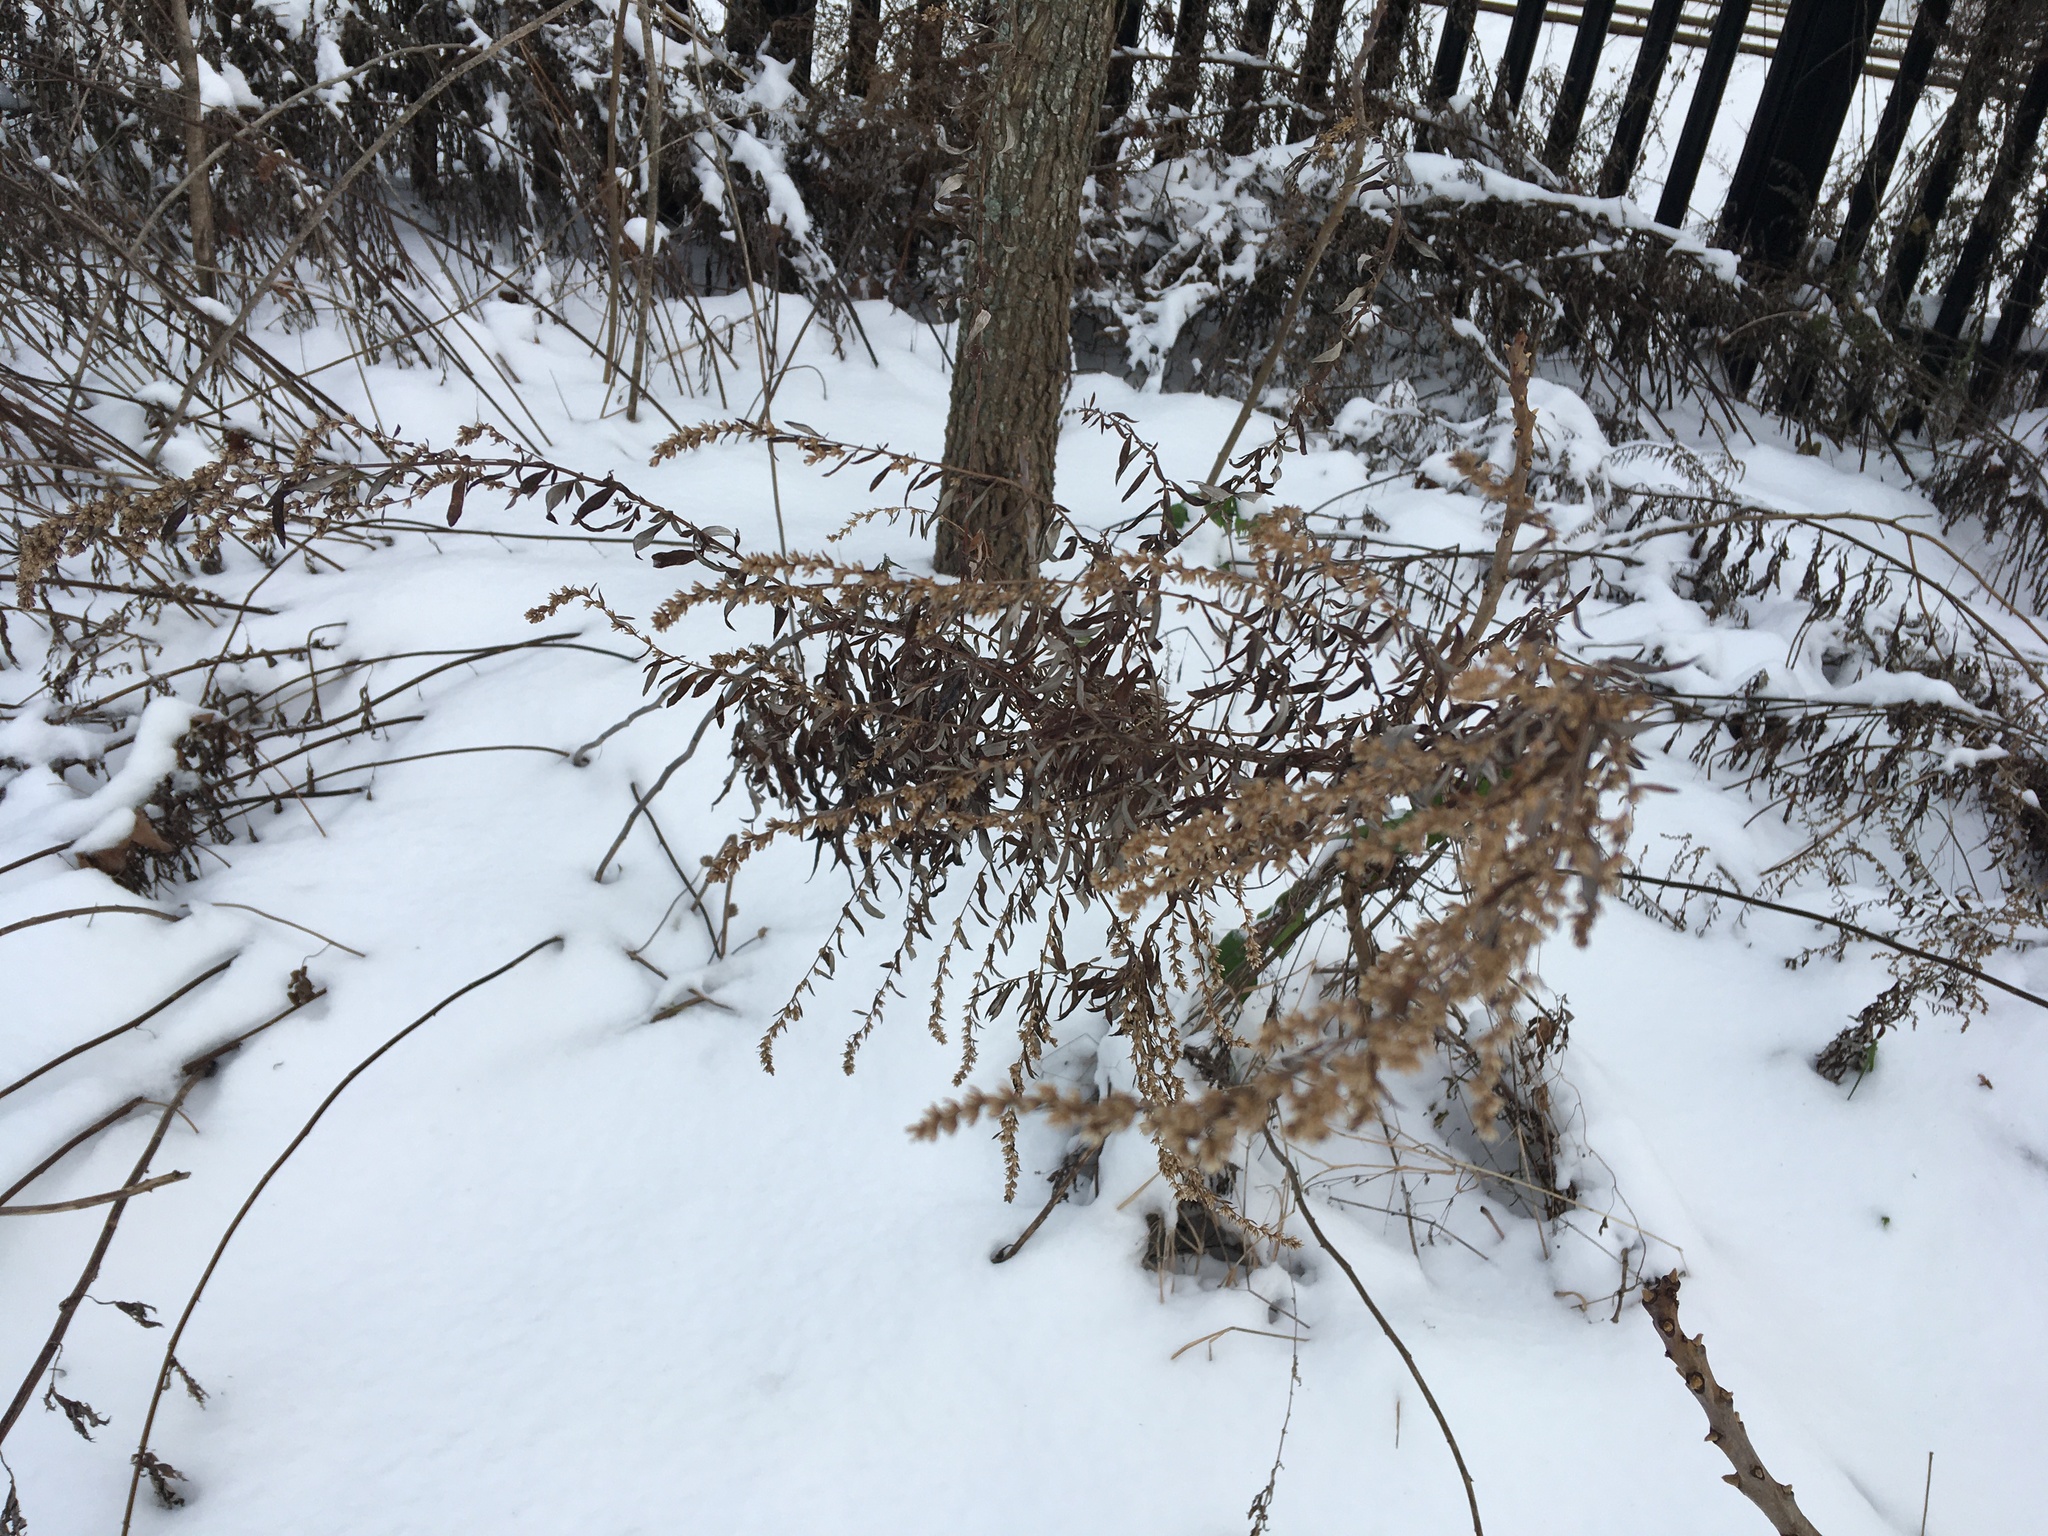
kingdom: Plantae
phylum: Tracheophyta
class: Magnoliopsida
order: Asterales
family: Asteraceae
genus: Artemisia
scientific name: Artemisia vulgaris
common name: Mugwort
